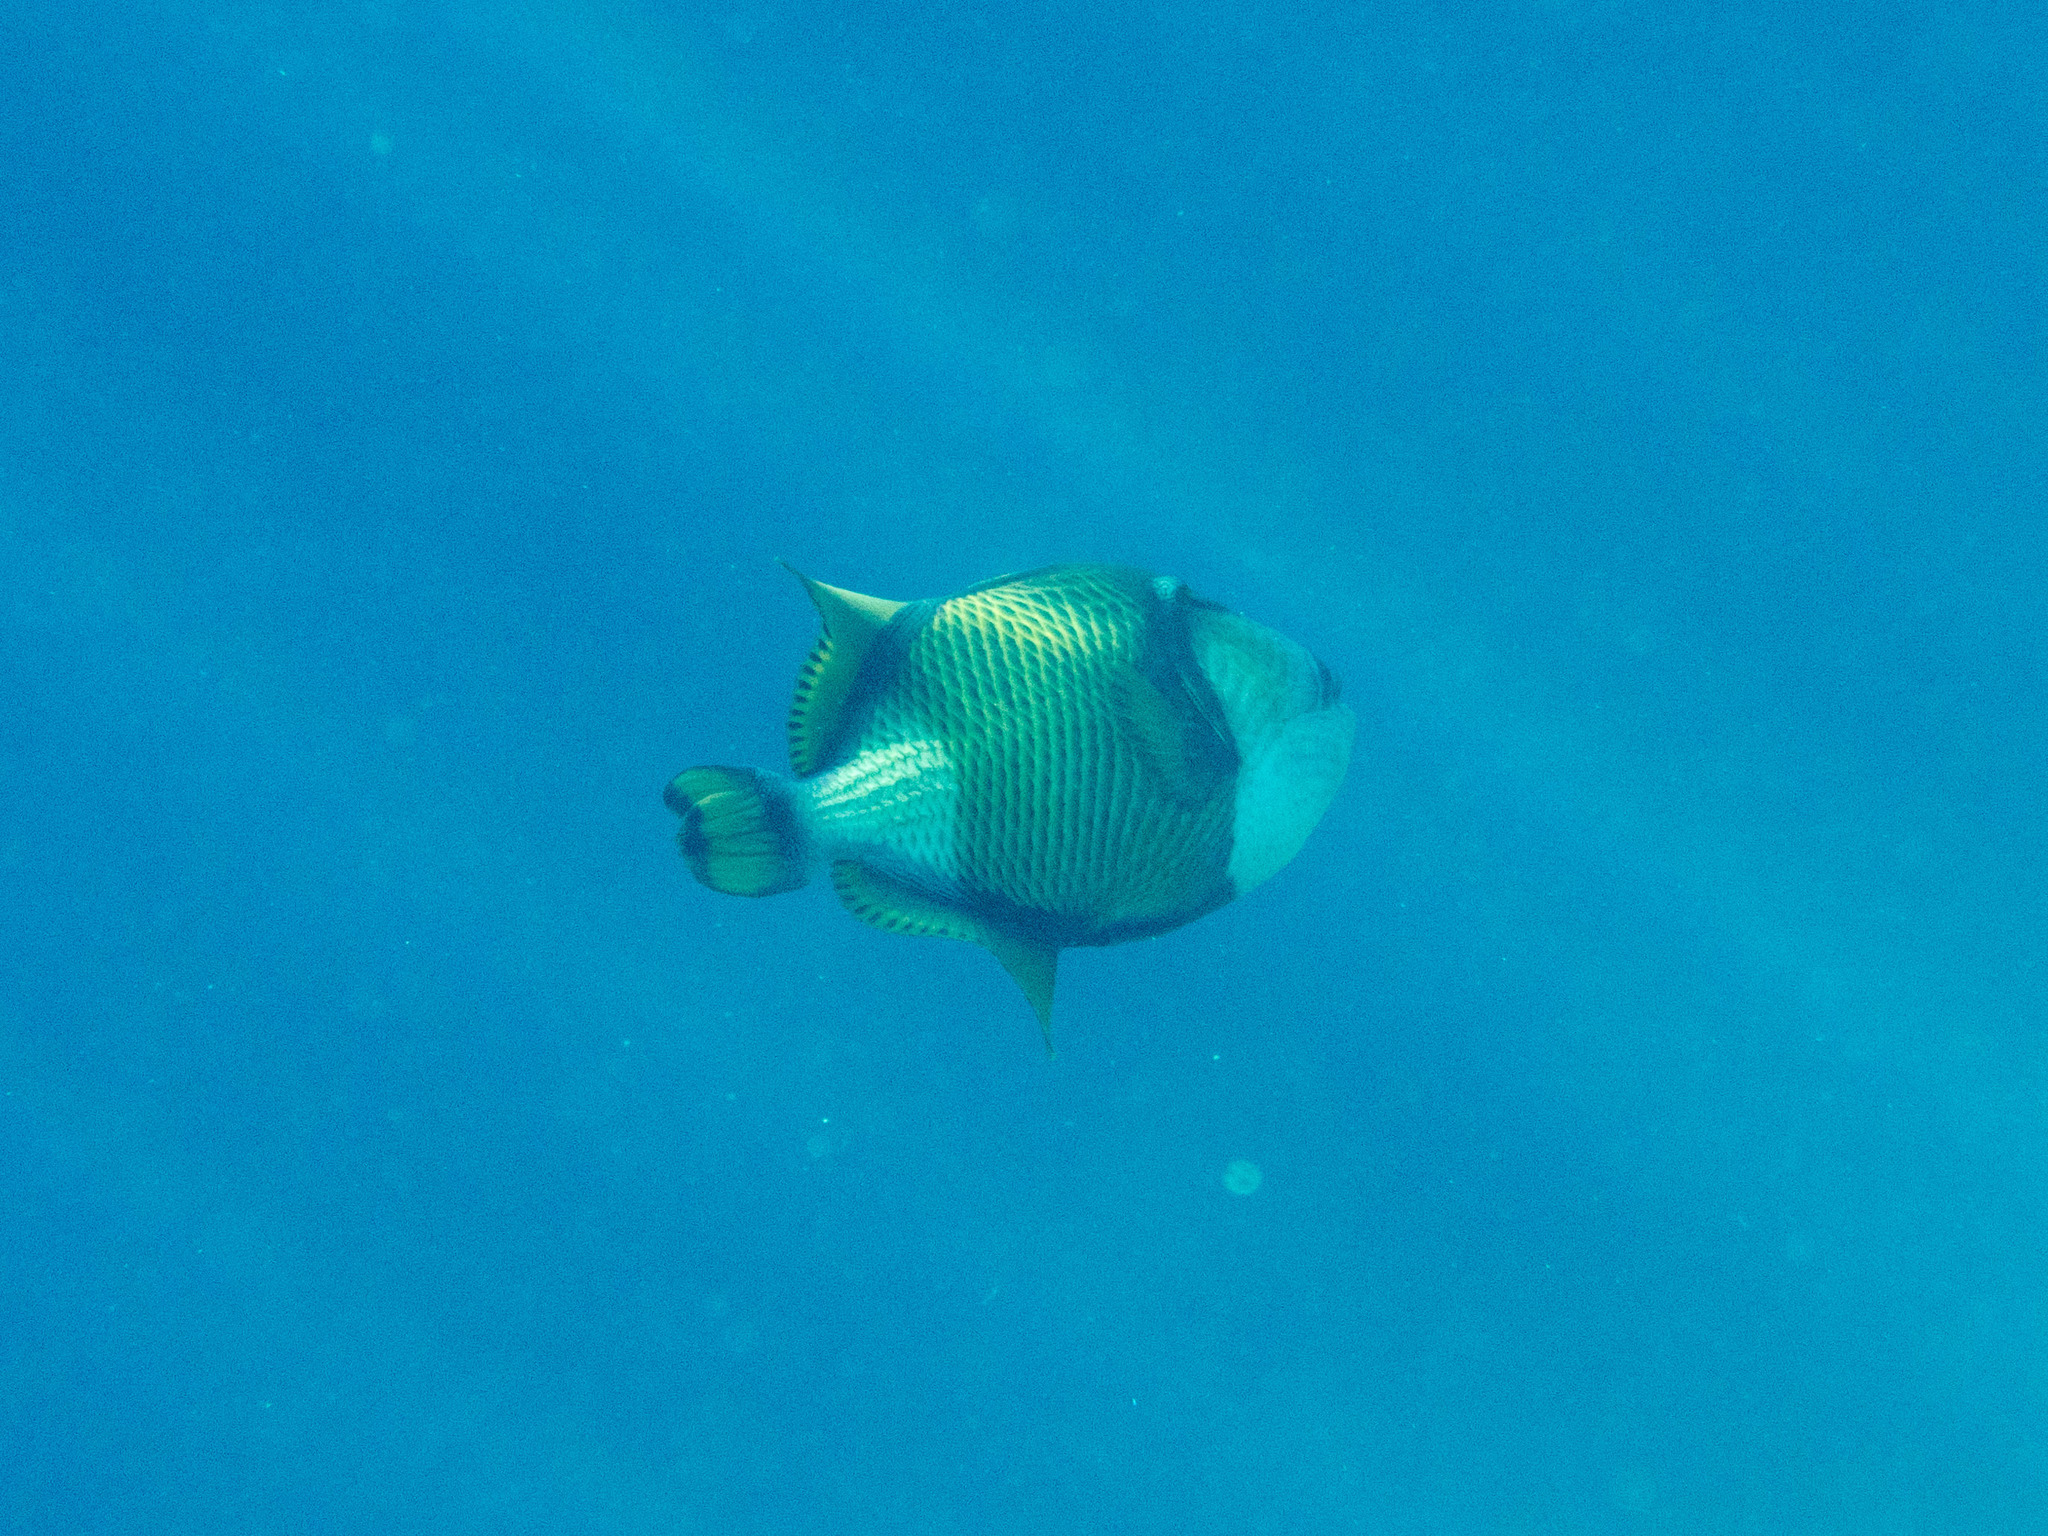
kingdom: Animalia
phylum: Chordata
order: Tetraodontiformes
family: Balistidae
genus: Balistoides
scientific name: Balistoides viridescens
